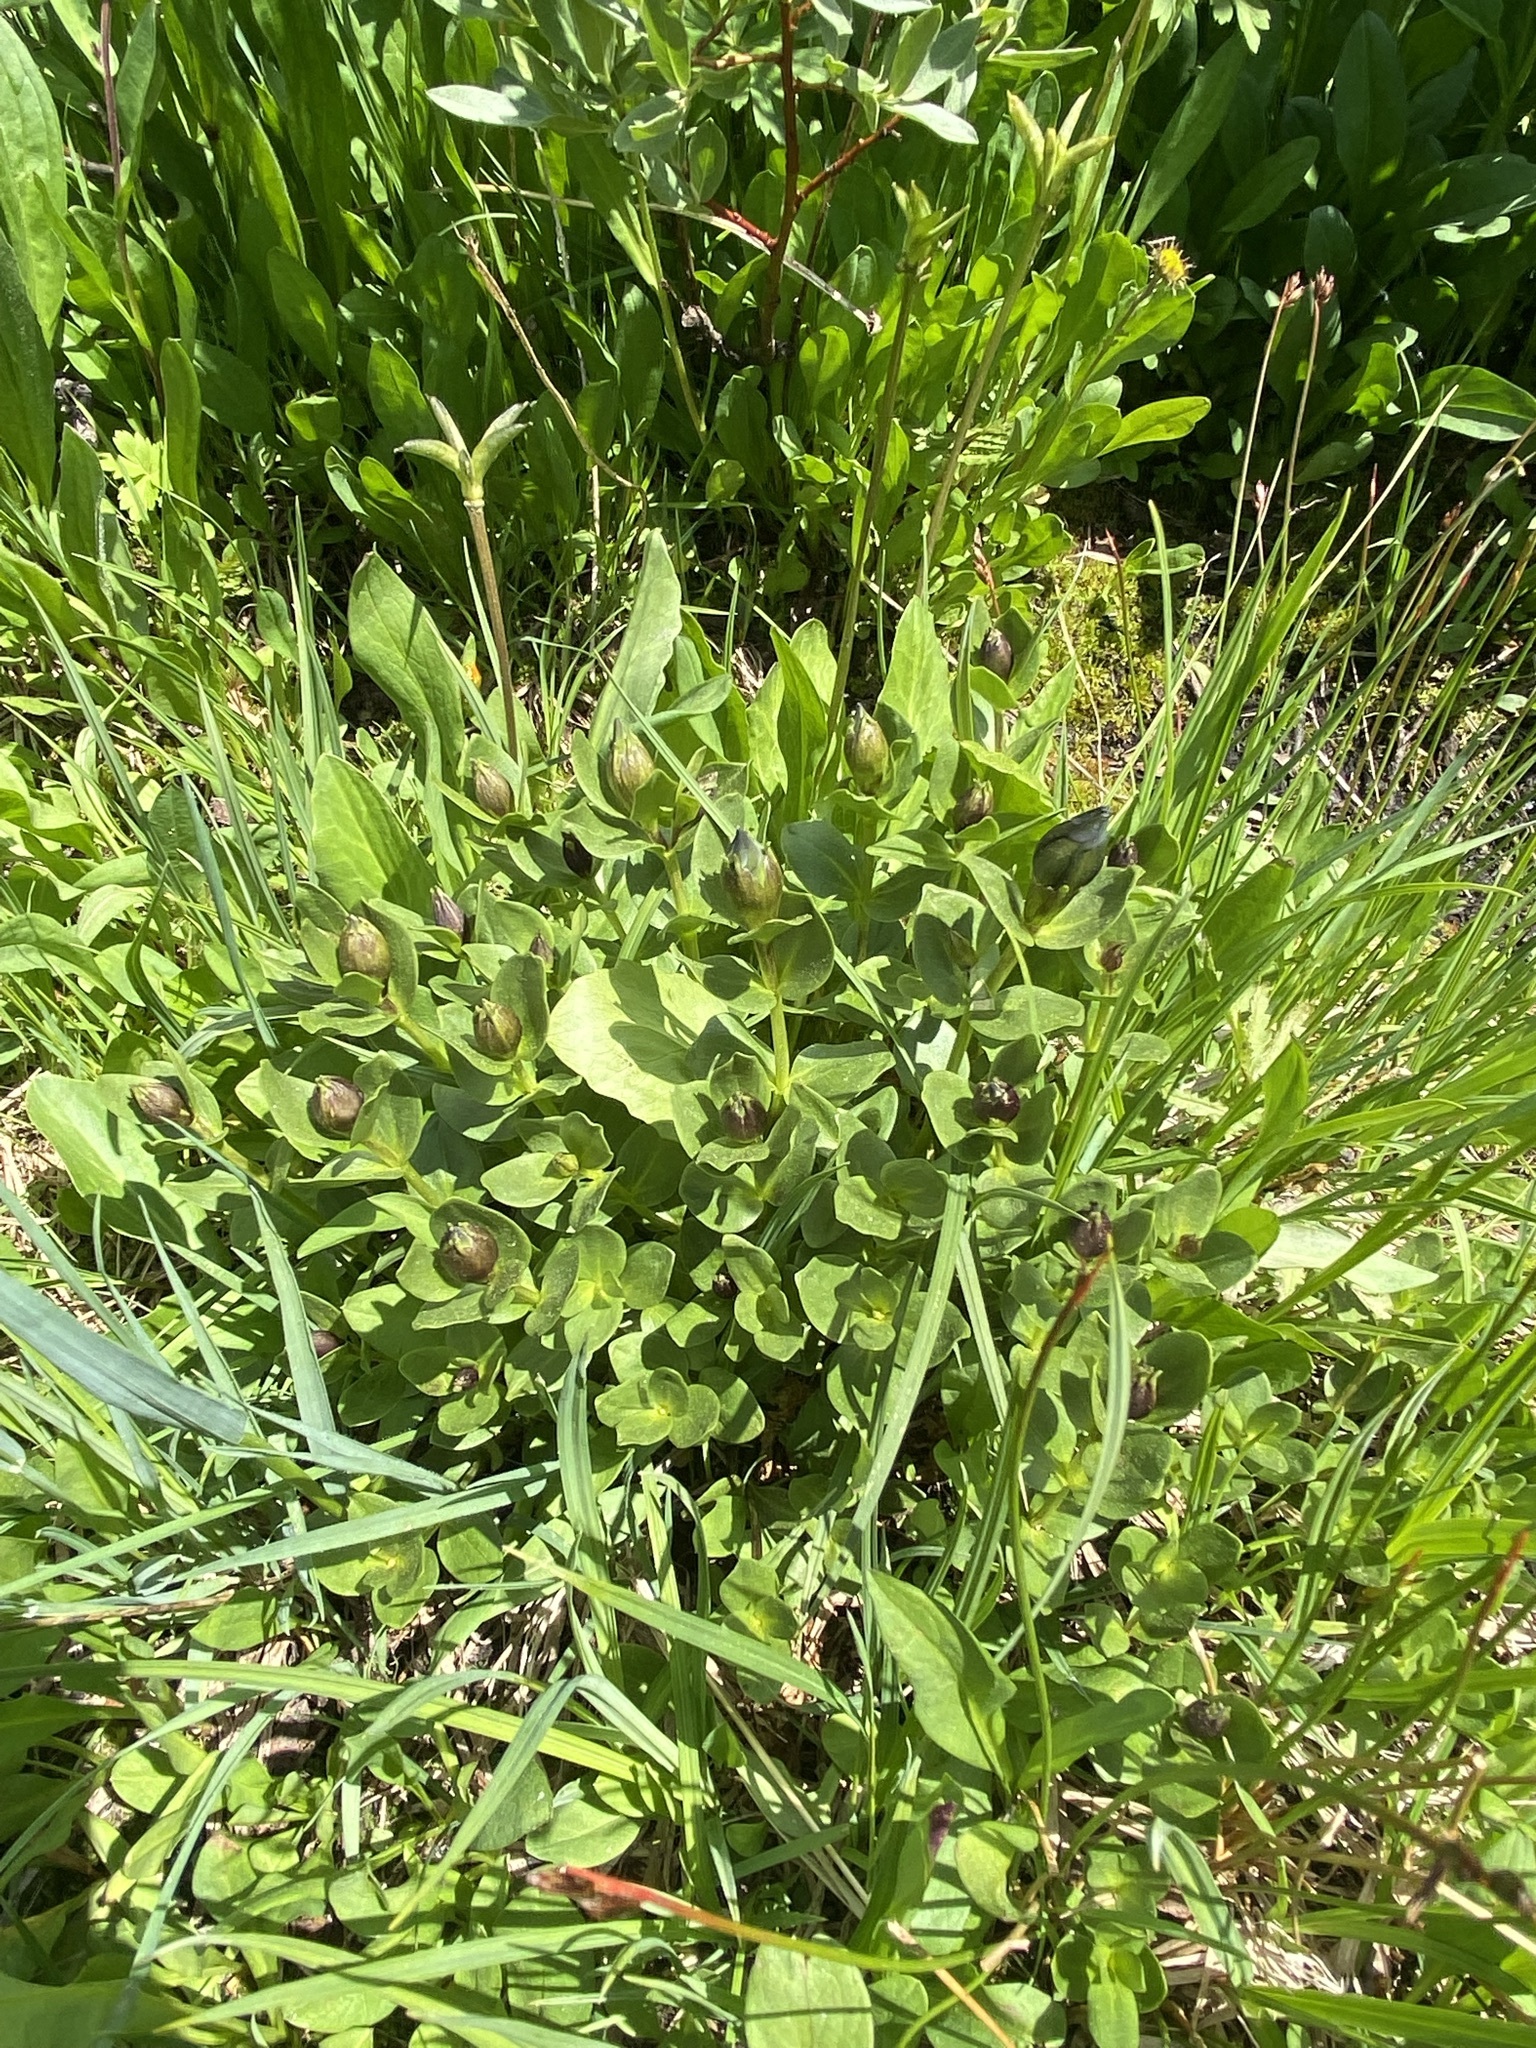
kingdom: Plantae
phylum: Tracheophyta
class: Magnoliopsida
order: Gentianales
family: Gentianaceae
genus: Gentiana
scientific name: Gentiana calycosa
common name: Rainier pleated gentian
